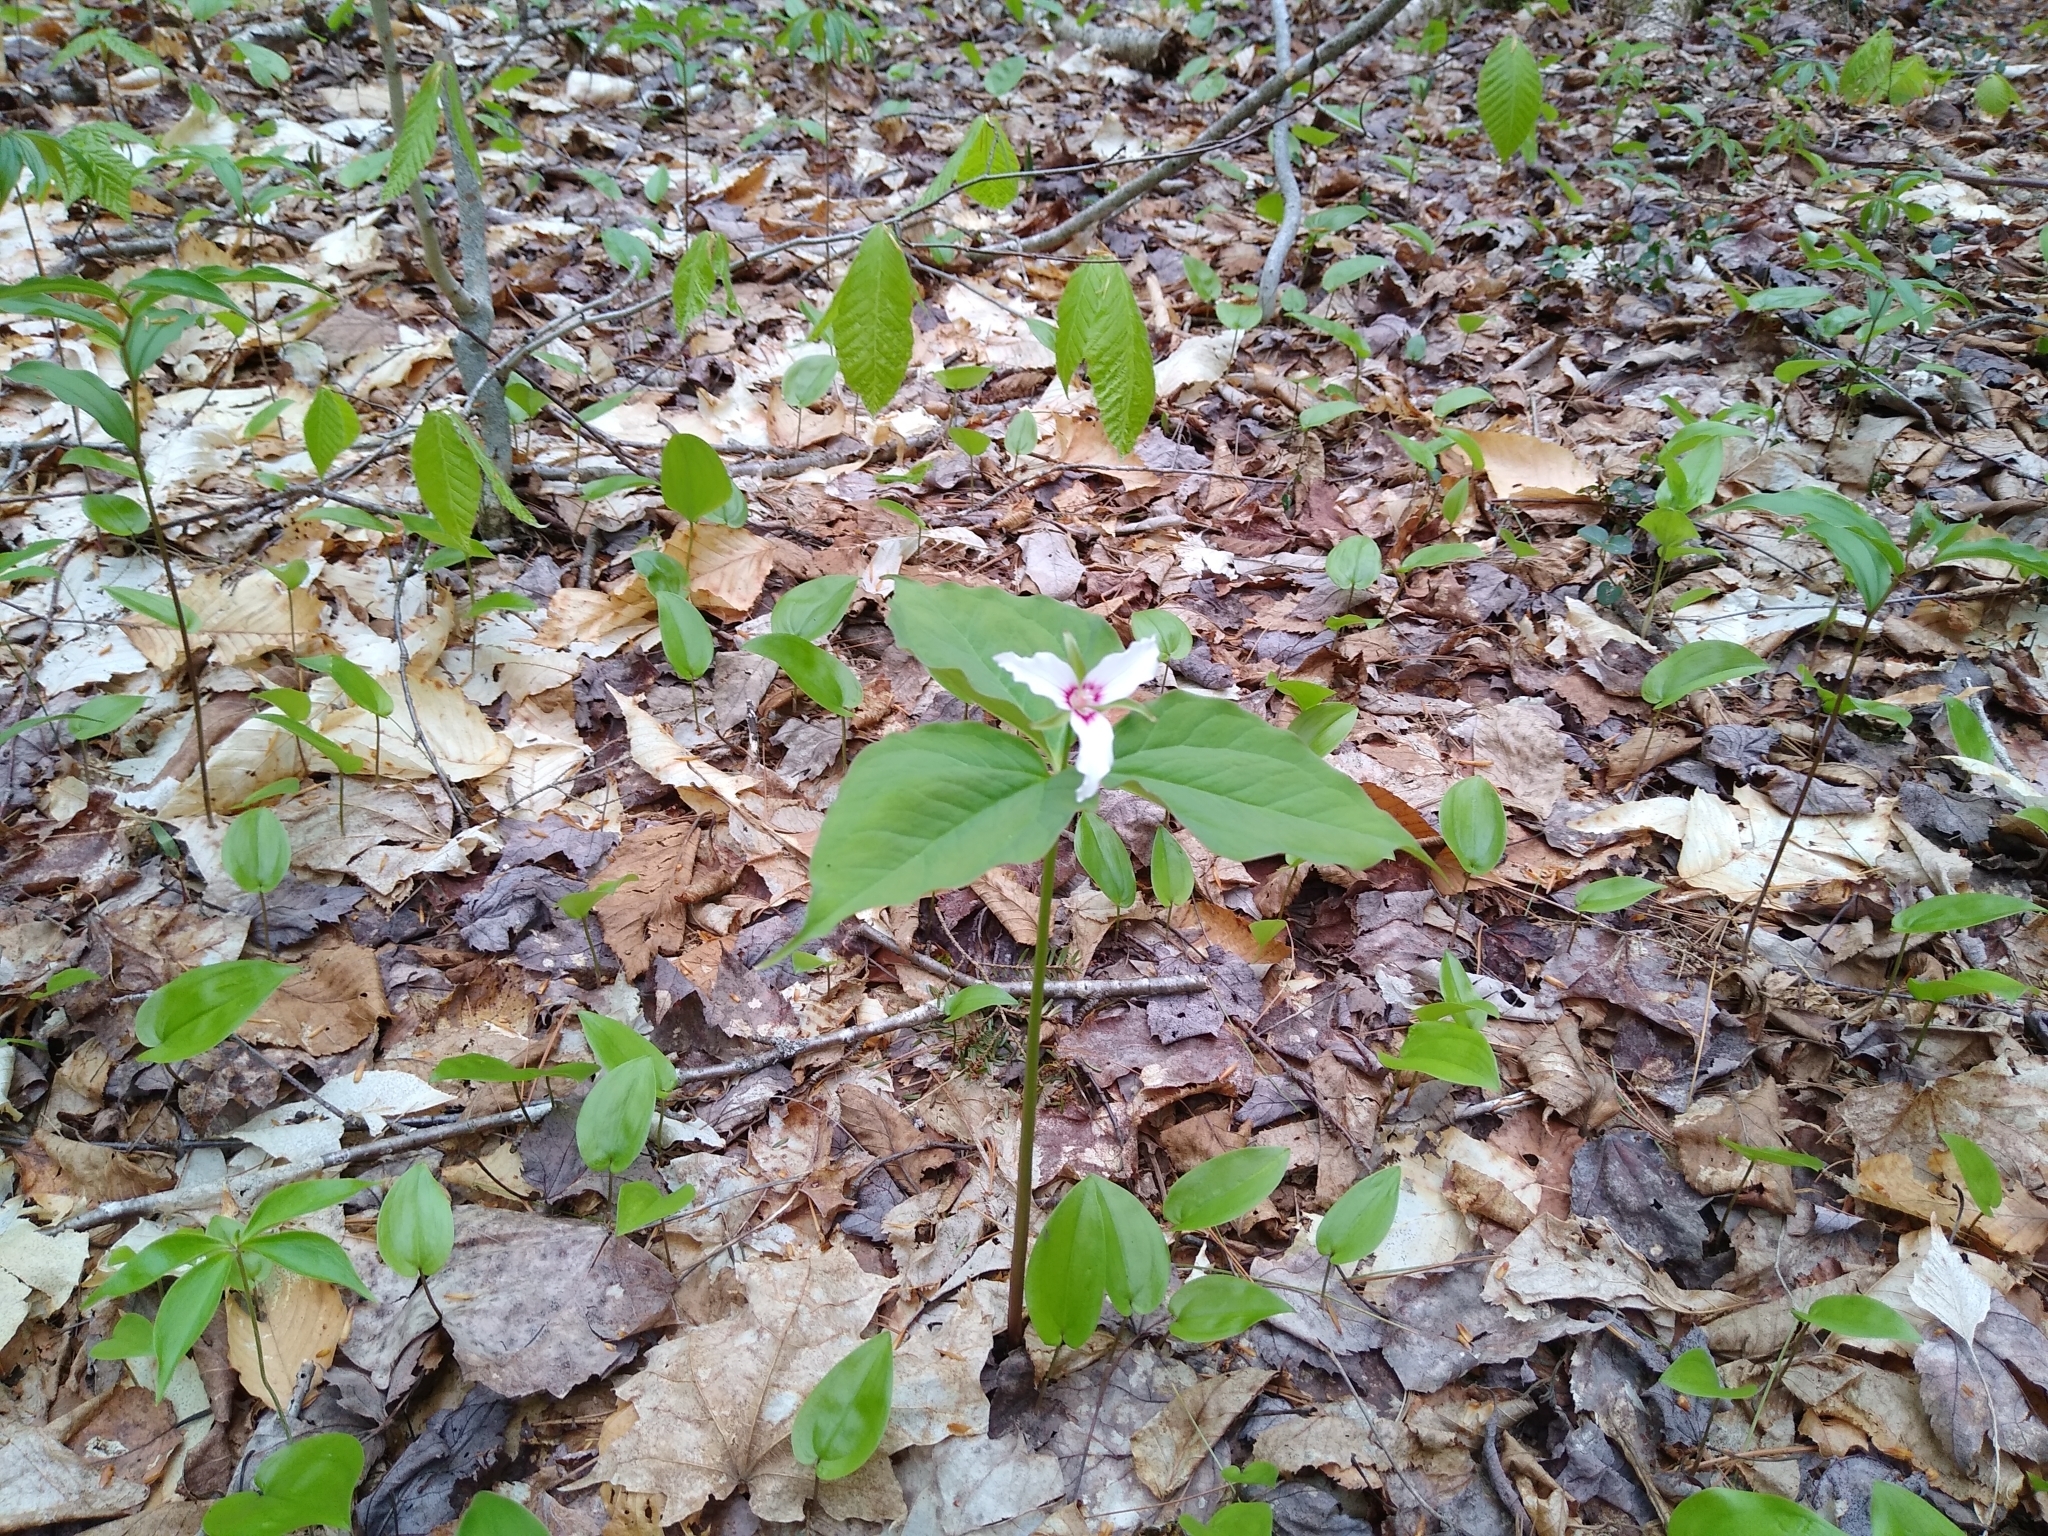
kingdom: Plantae
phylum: Tracheophyta
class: Liliopsida
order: Liliales
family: Melanthiaceae
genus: Trillium
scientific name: Trillium undulatum
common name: Paint trillium
